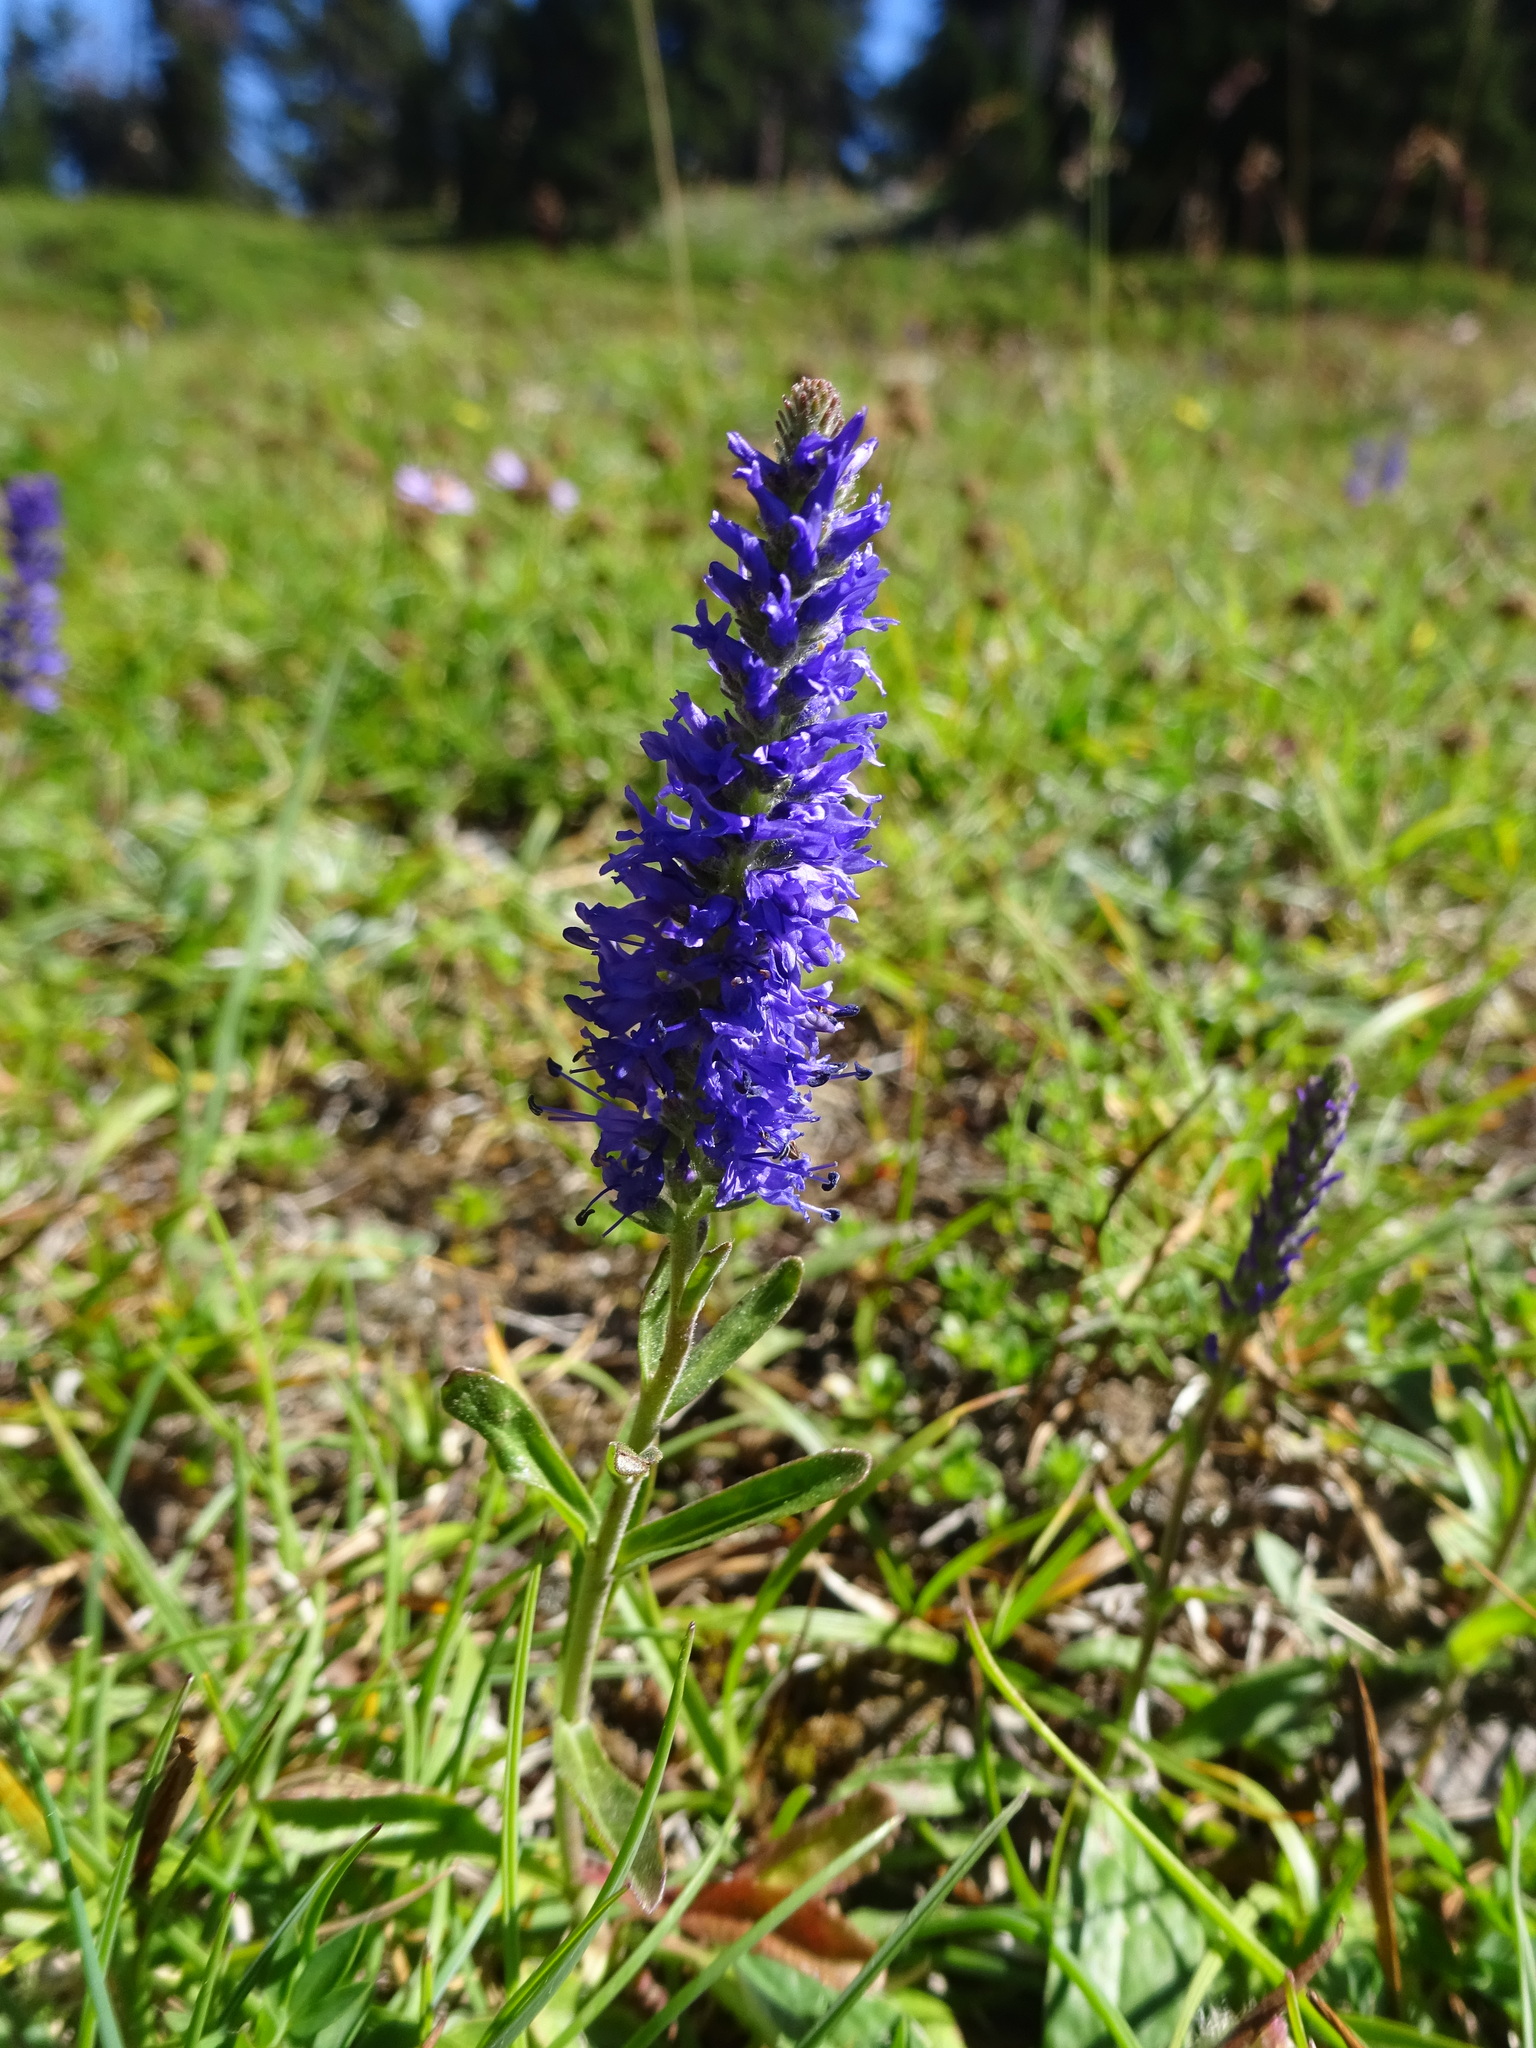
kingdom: Plantae
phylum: Tracheophyta
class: Magnoliopsida
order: Lamiales
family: Plantaginaceae
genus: Veronica
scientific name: Veronica spicata
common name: Spiked speedwell
